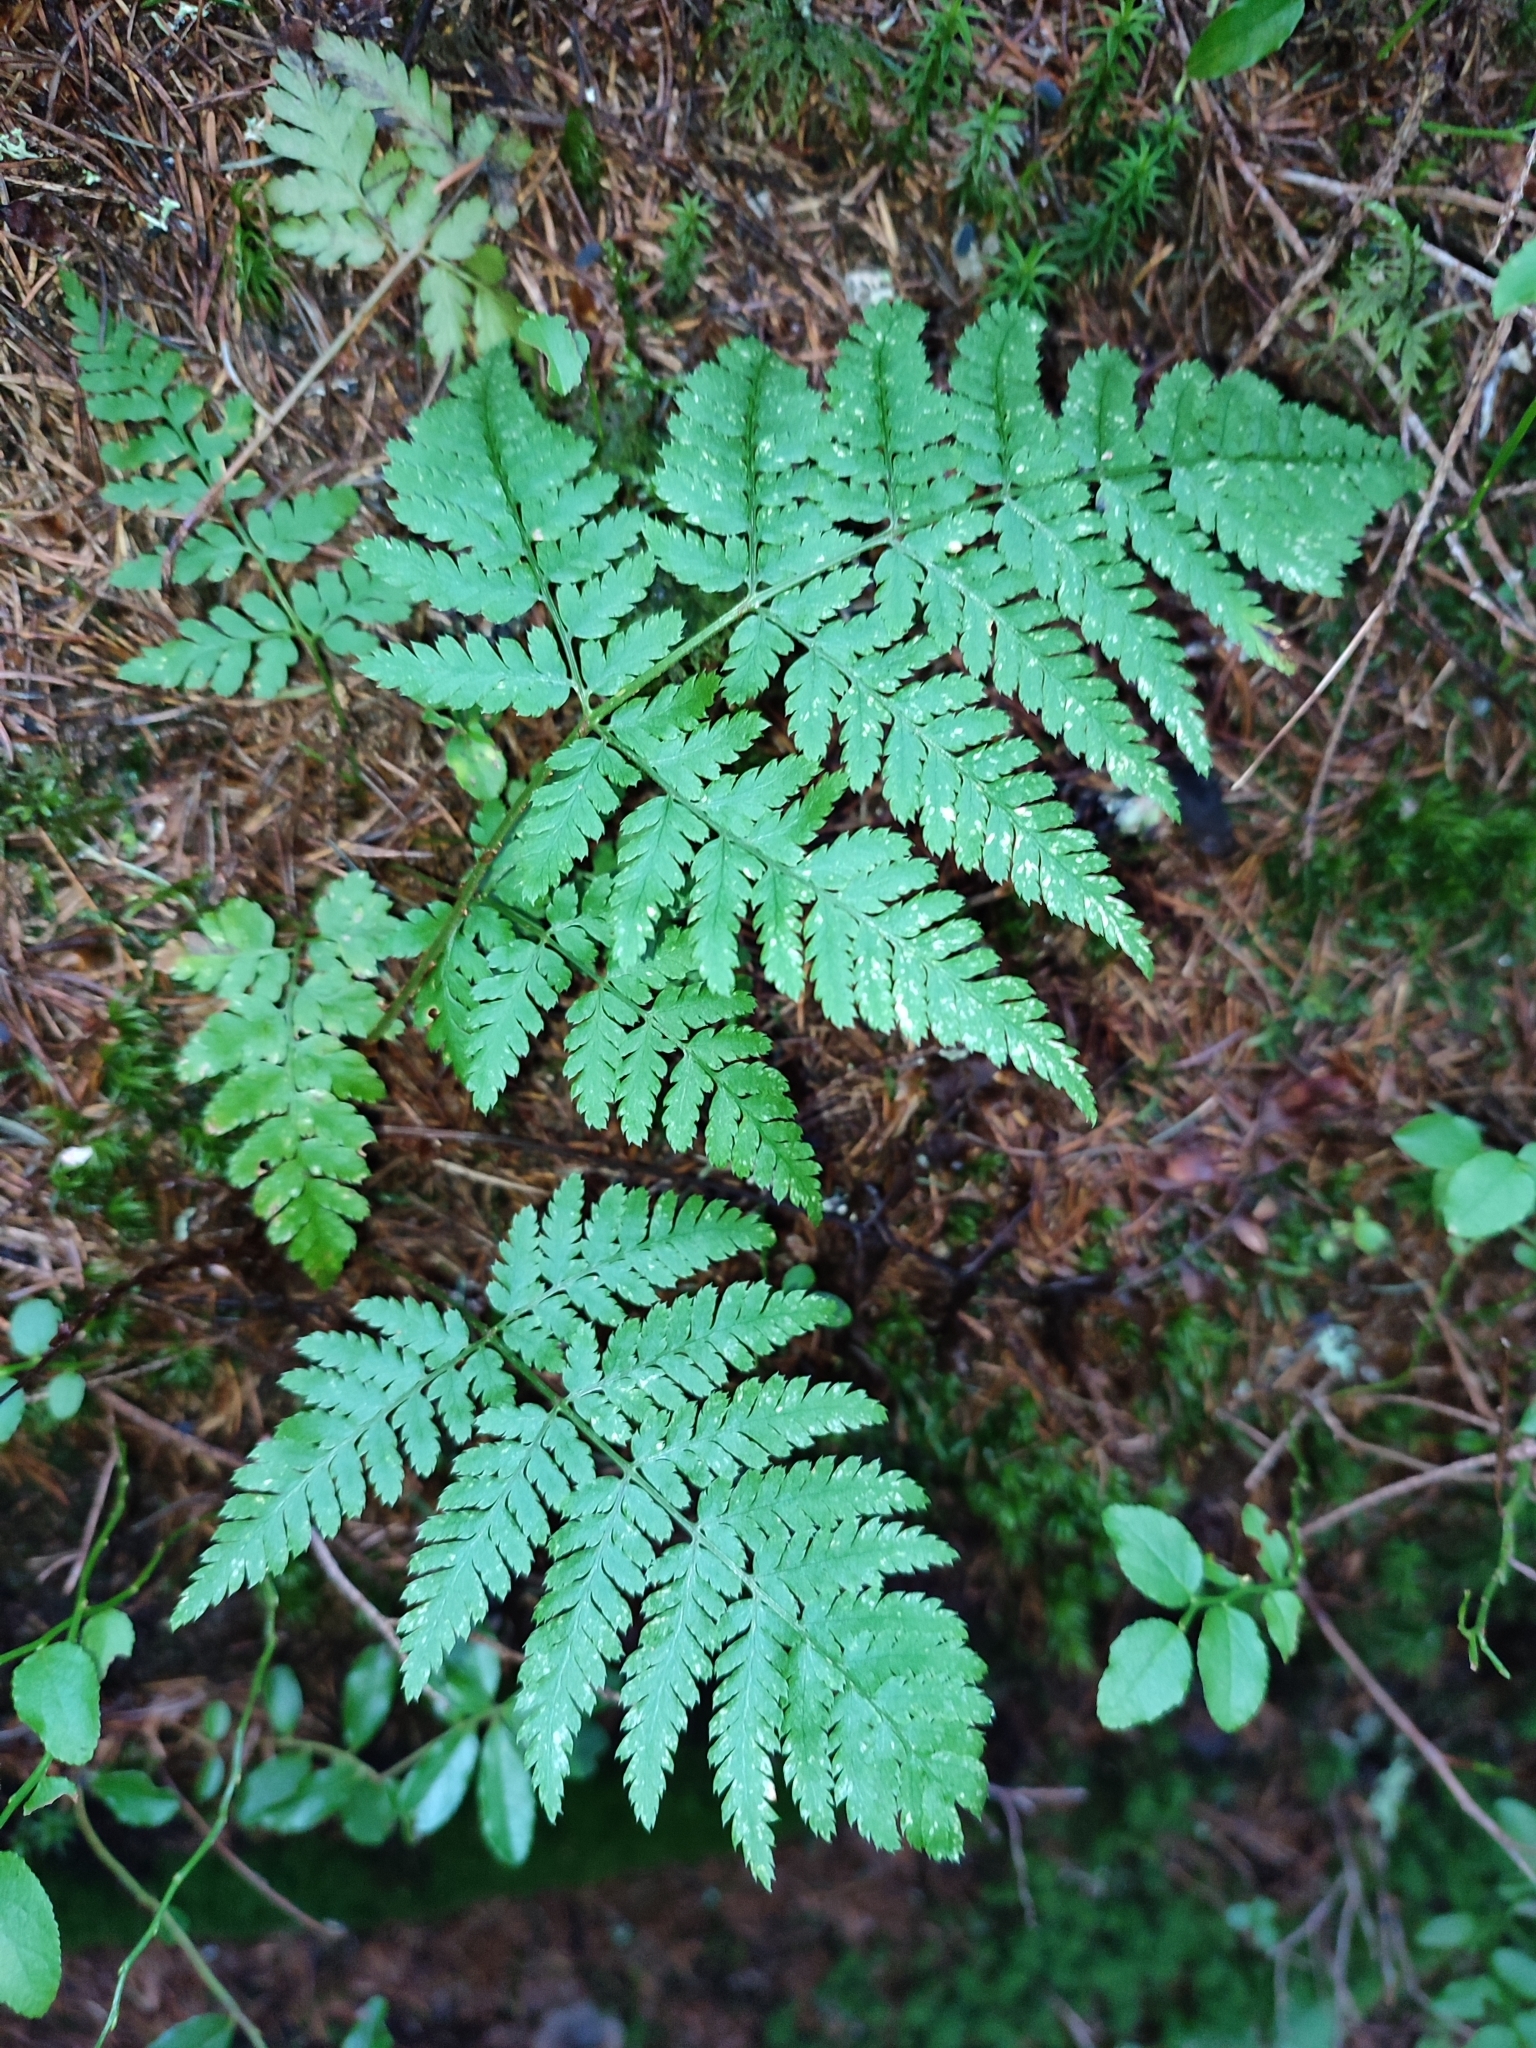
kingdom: Plantae
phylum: Tracheophyta
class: Polypodiopsida
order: Polypodiales
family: Dryopteridaceae
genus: Dryopteris
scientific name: Dryopteris carthusiana
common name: Narrow buckler-fern
